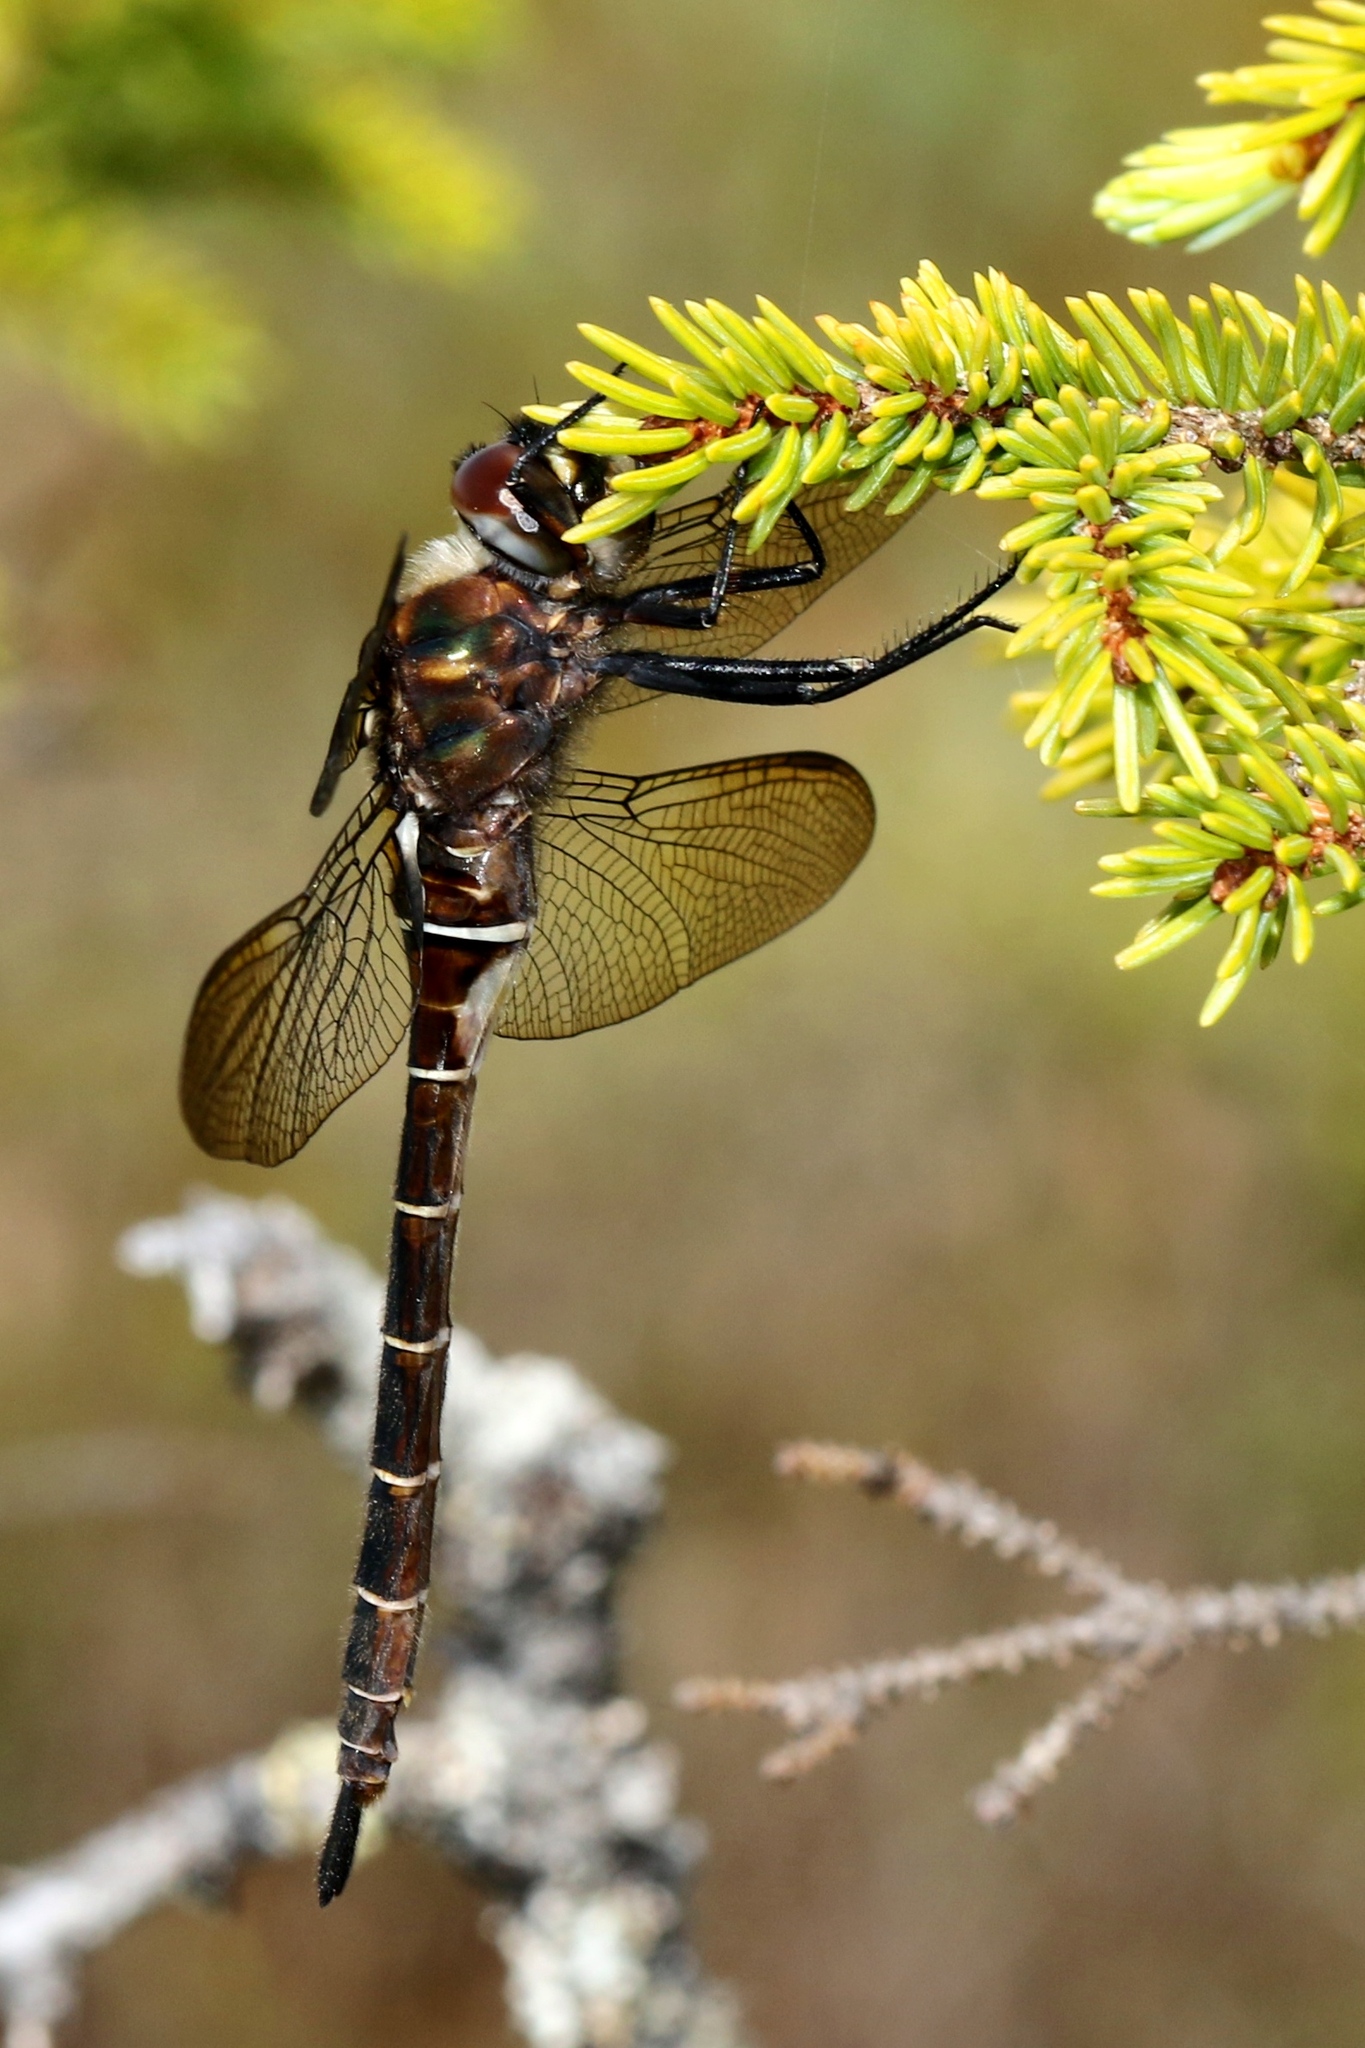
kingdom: Animalia
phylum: Arthropoda
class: Insecta
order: Odonata
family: Corduliidae
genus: Somatochlora
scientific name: Somatochlora cingulata
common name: Lake emerald
